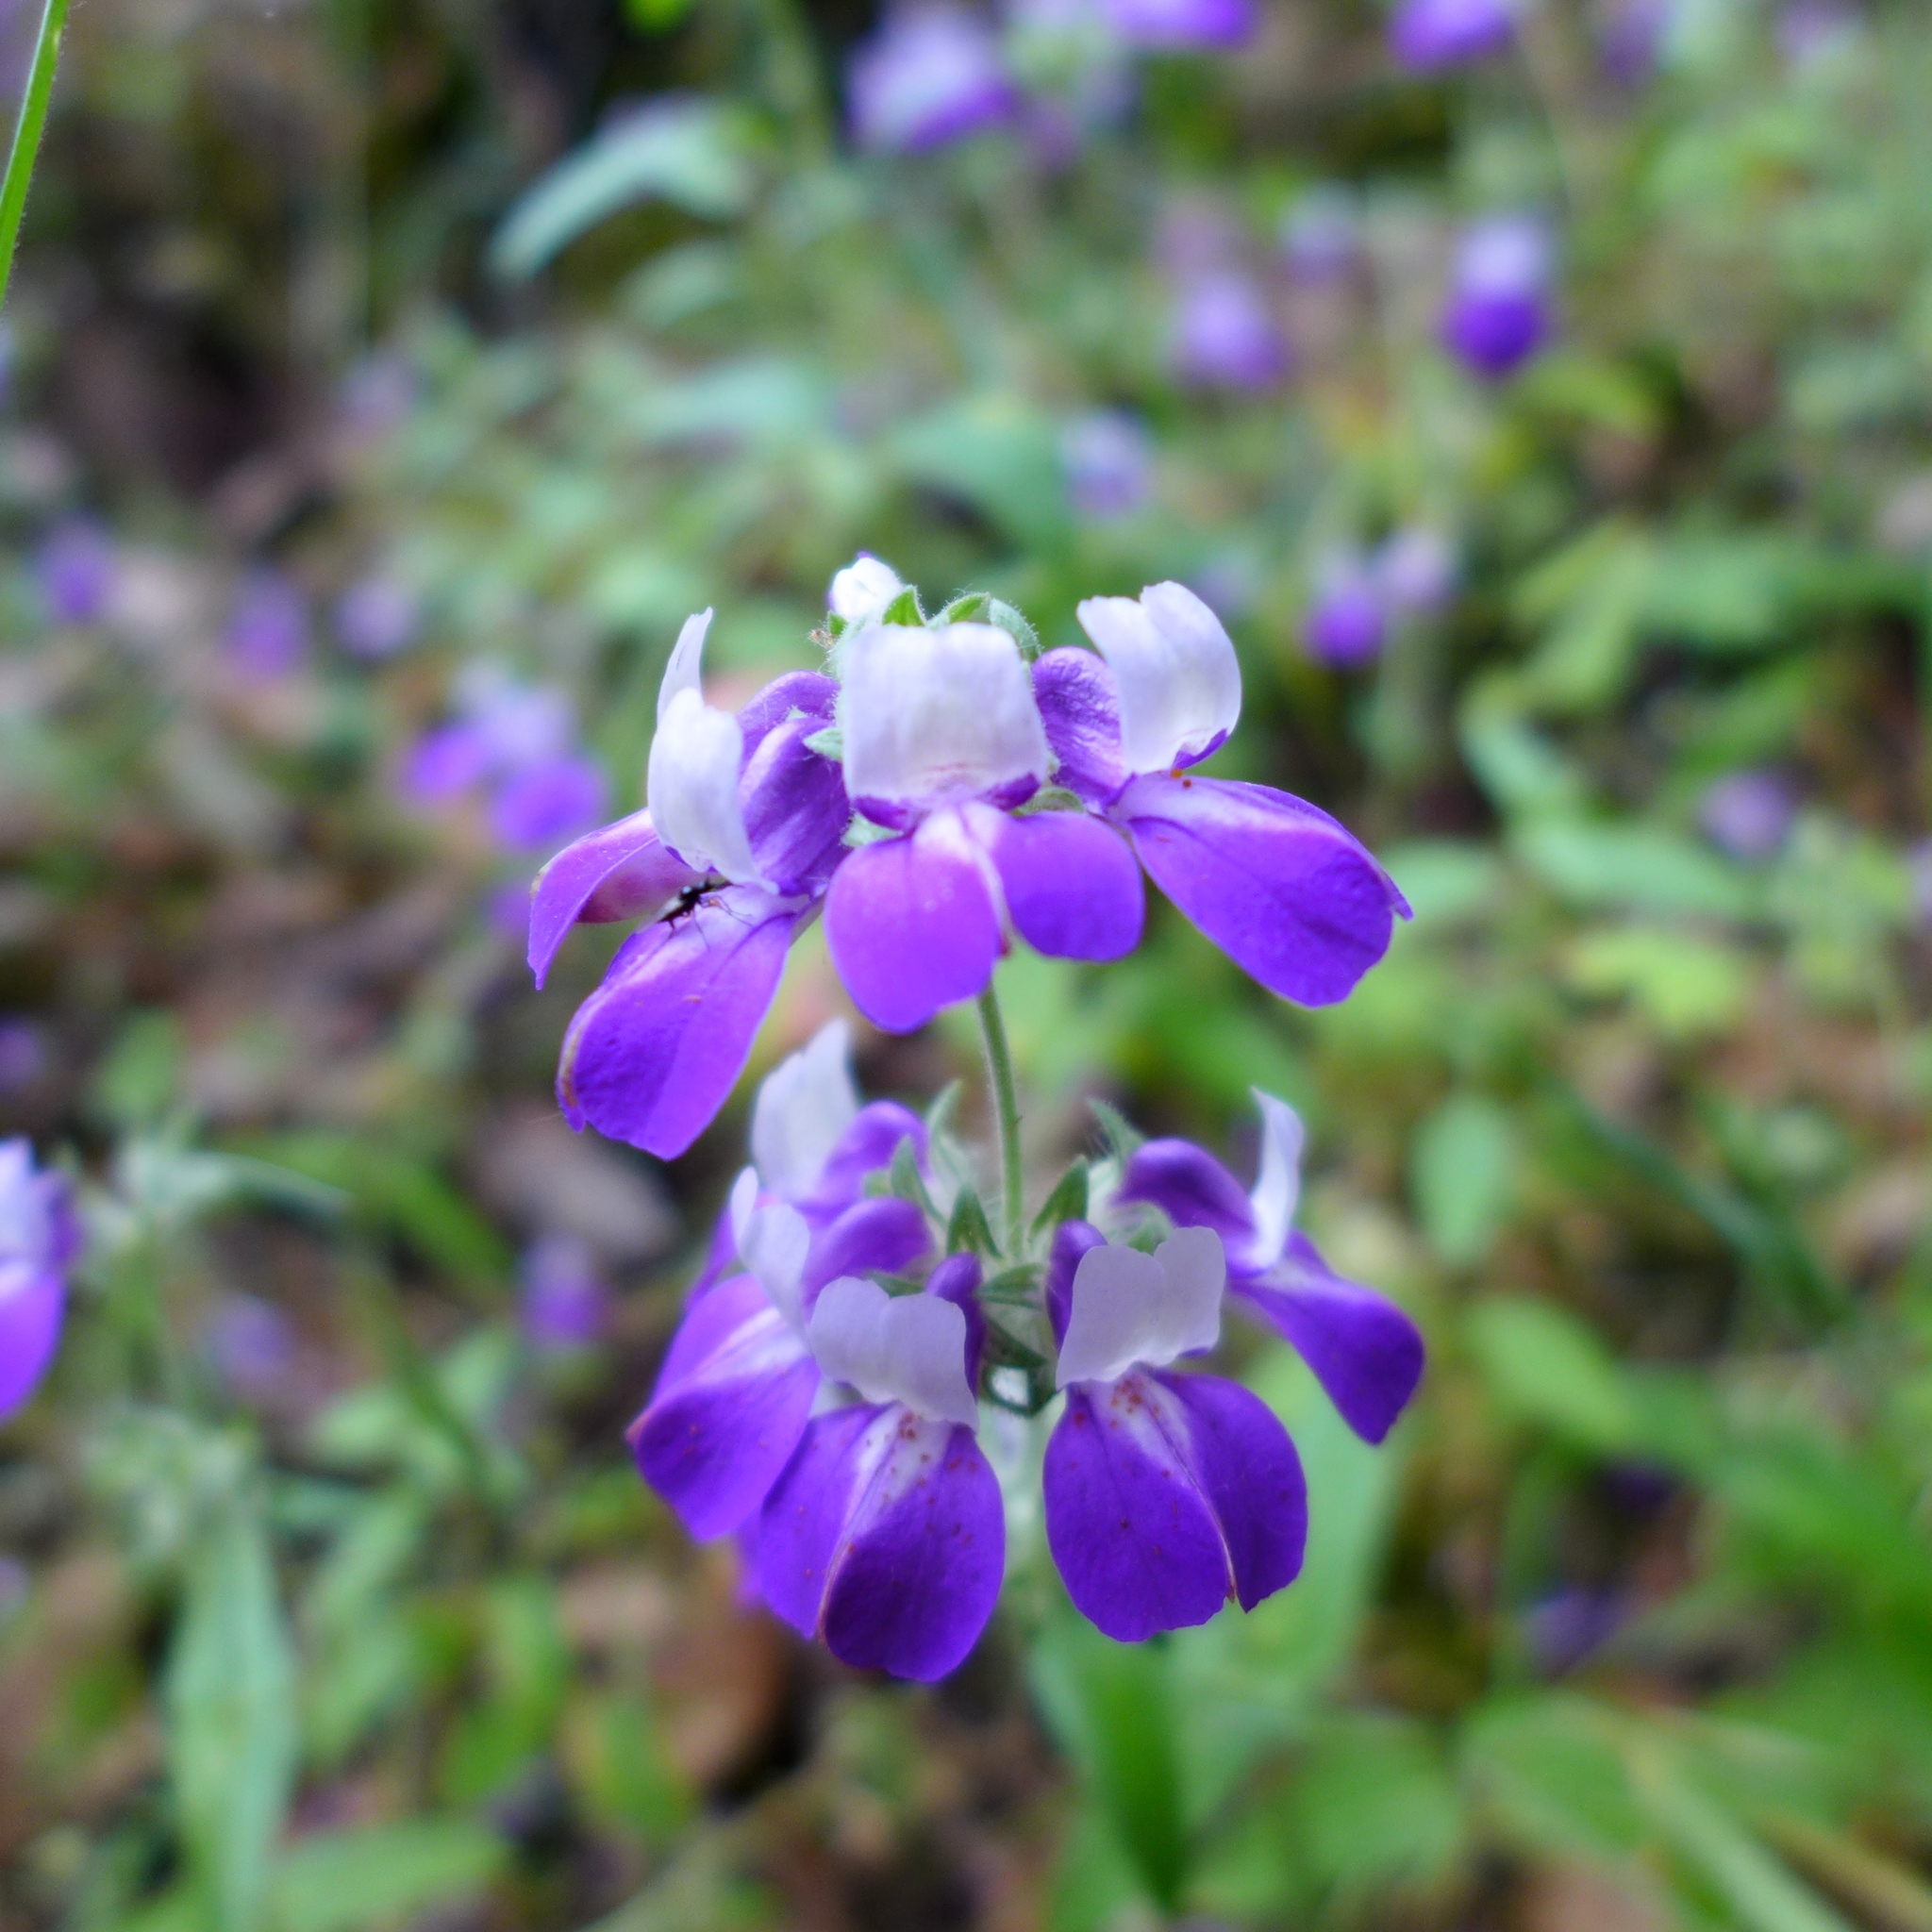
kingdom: Plantae
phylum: Tracheophyta
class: Magnoliopsida
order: Lamiales
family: Plantaginaceae
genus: Collinsia
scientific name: Collinsia heterophylla
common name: Chinese-houses
